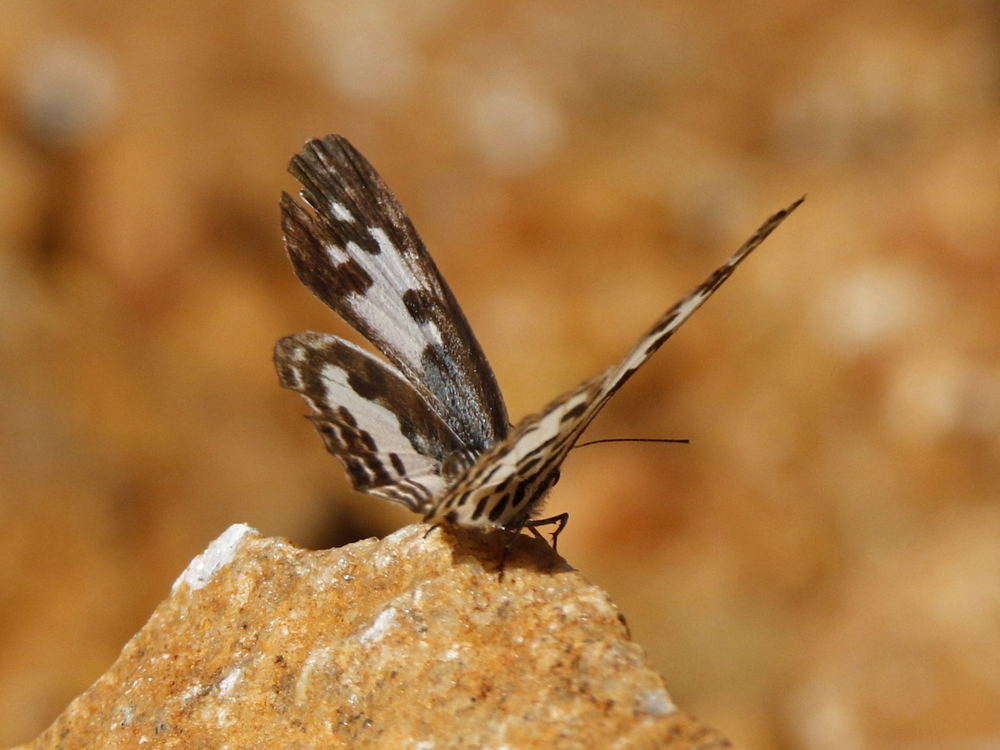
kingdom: Animalia
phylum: Arthropoda
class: Insecta
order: Lepidoptera
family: Lycaenidae
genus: Castalius
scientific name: Castalius rosimon
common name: Common pierrot
